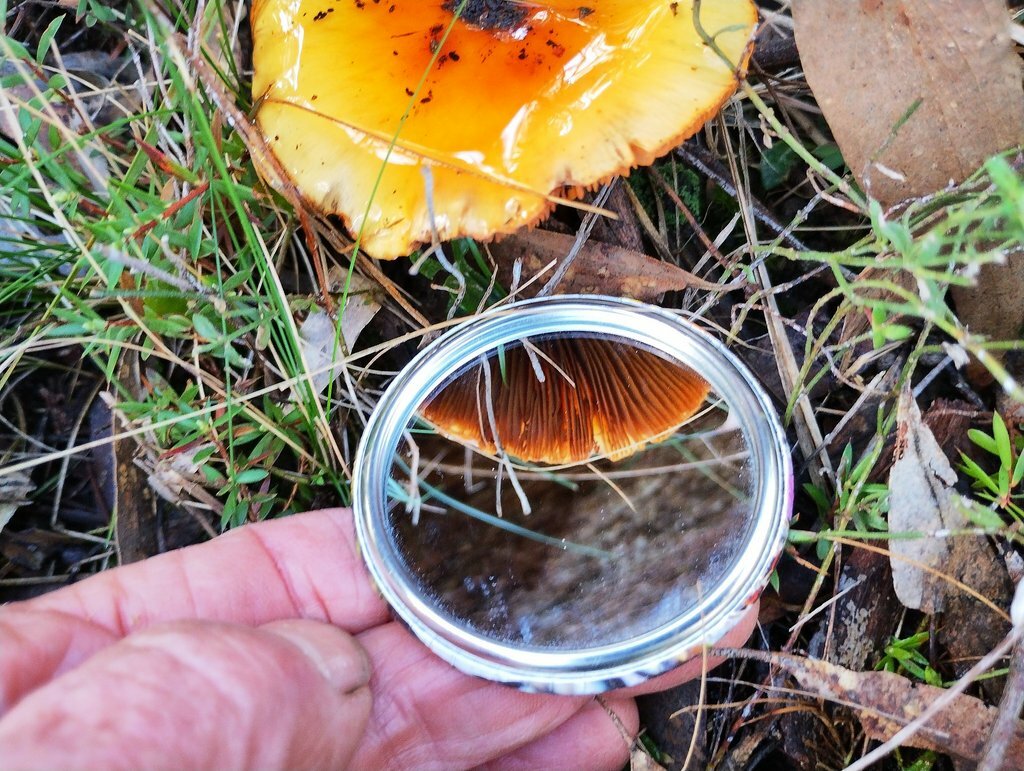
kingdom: Fungi
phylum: Basidiomycota
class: Agaricomycetes
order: Agaricales
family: Cortinariaceae
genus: Cortinarius
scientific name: Cortinarius sinapicolor
